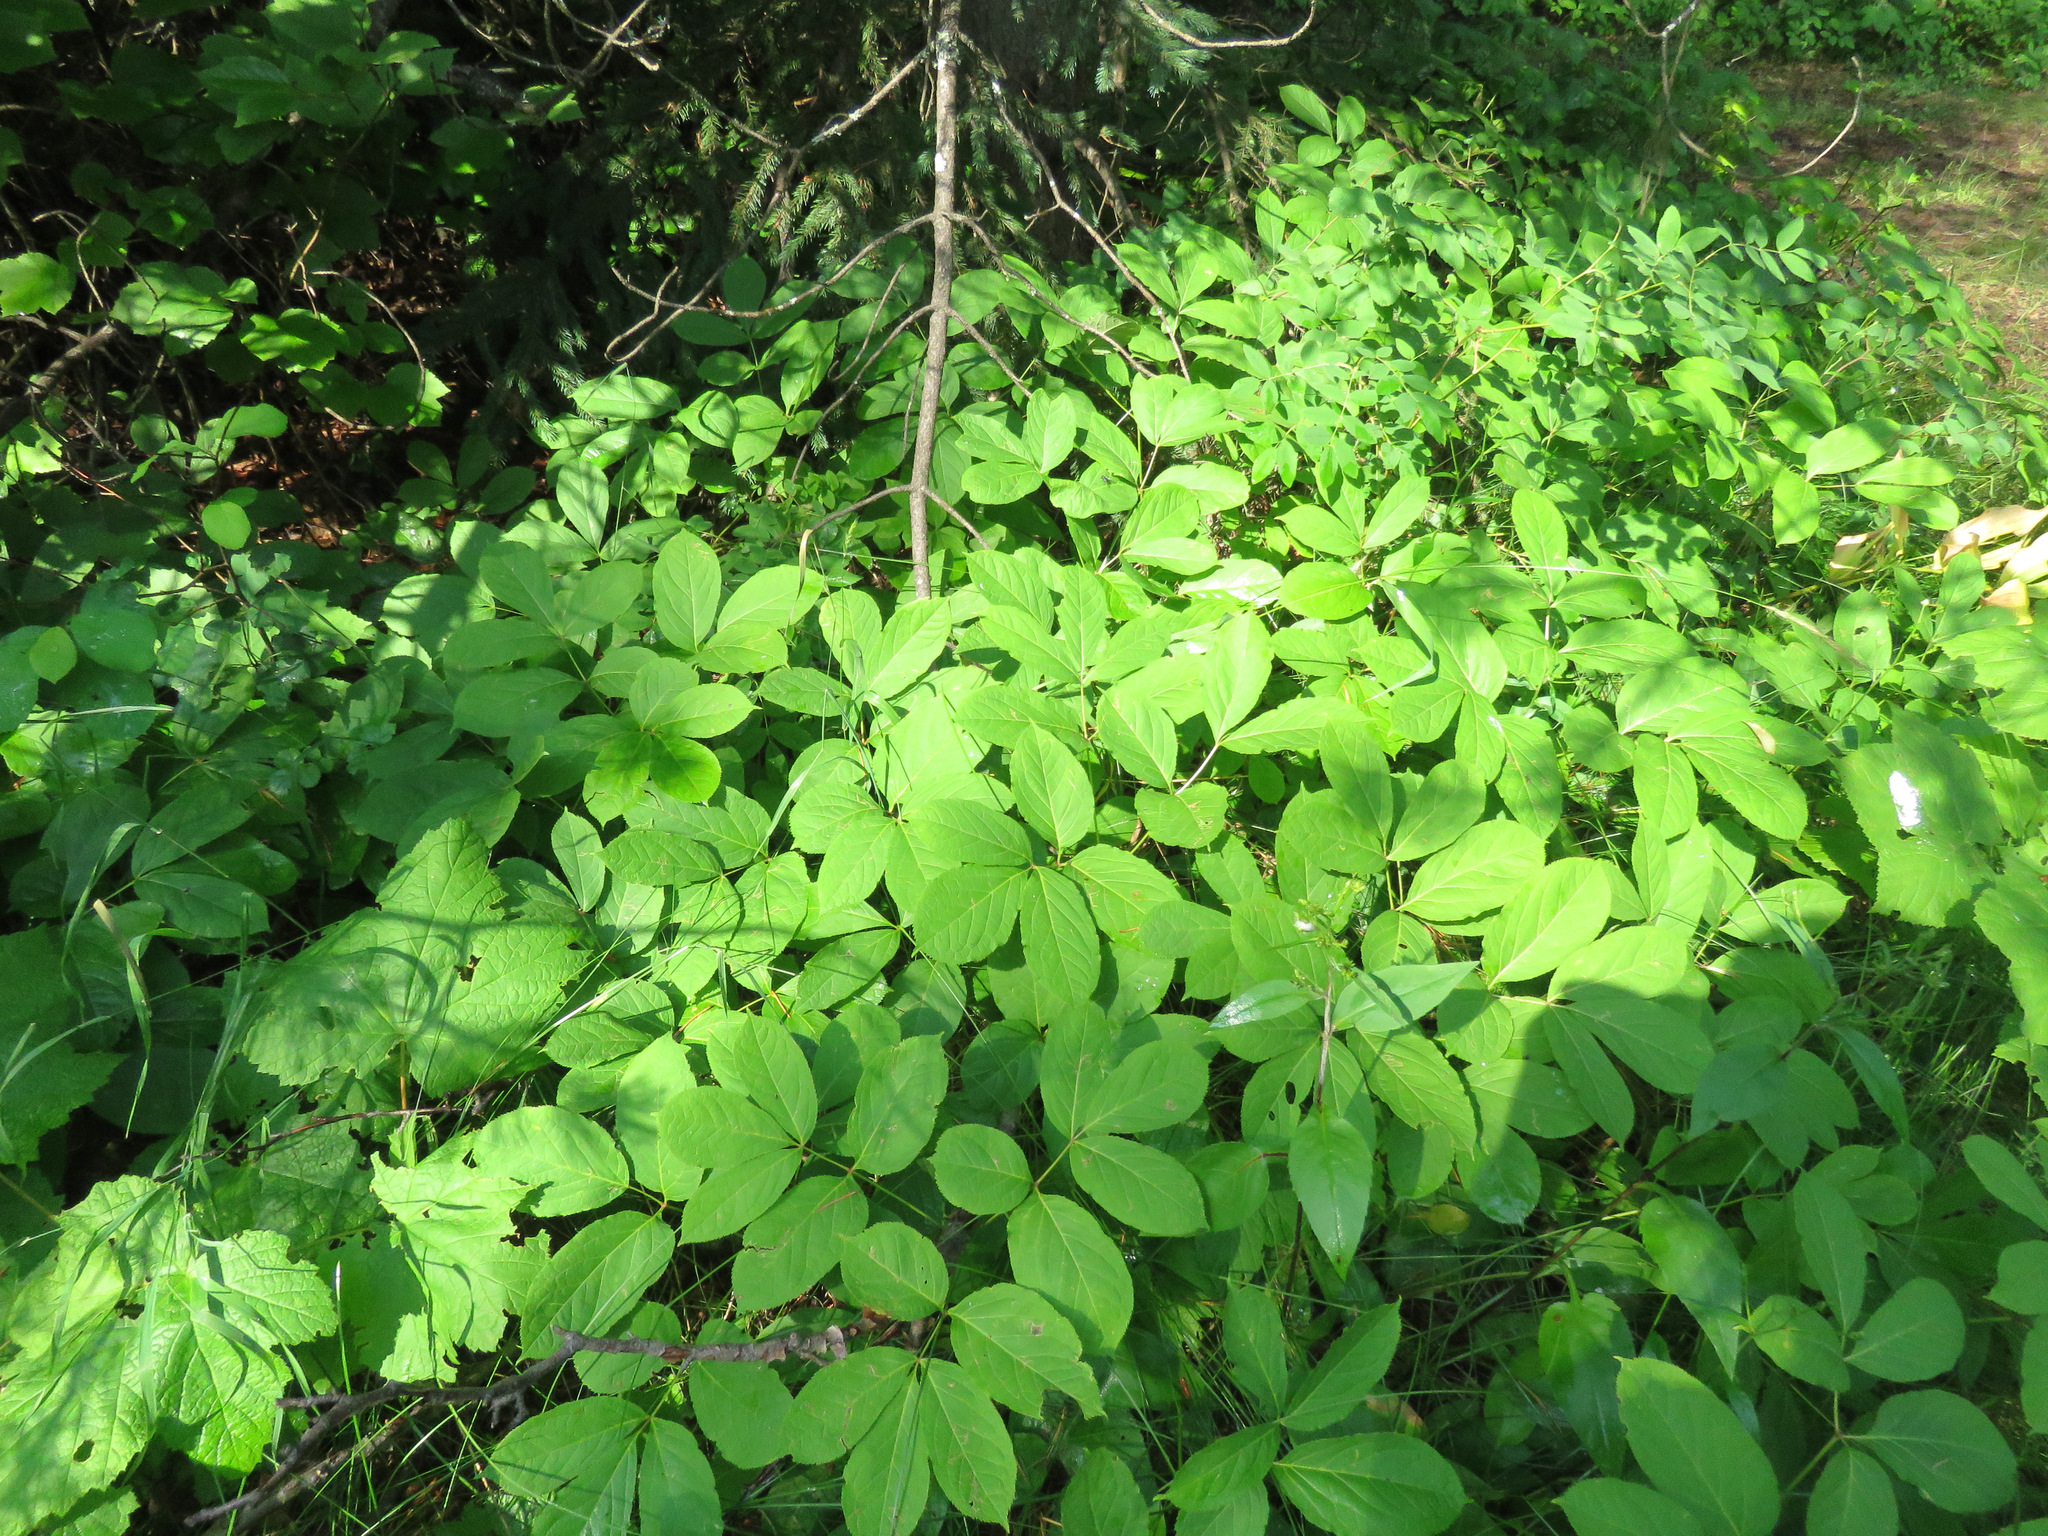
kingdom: Plantae
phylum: Tracheophyta
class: Magnoliopsida
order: Apiales
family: Araliaceae
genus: Aralia
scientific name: Aralia nudicaulis
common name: Wild sarsaparilla
